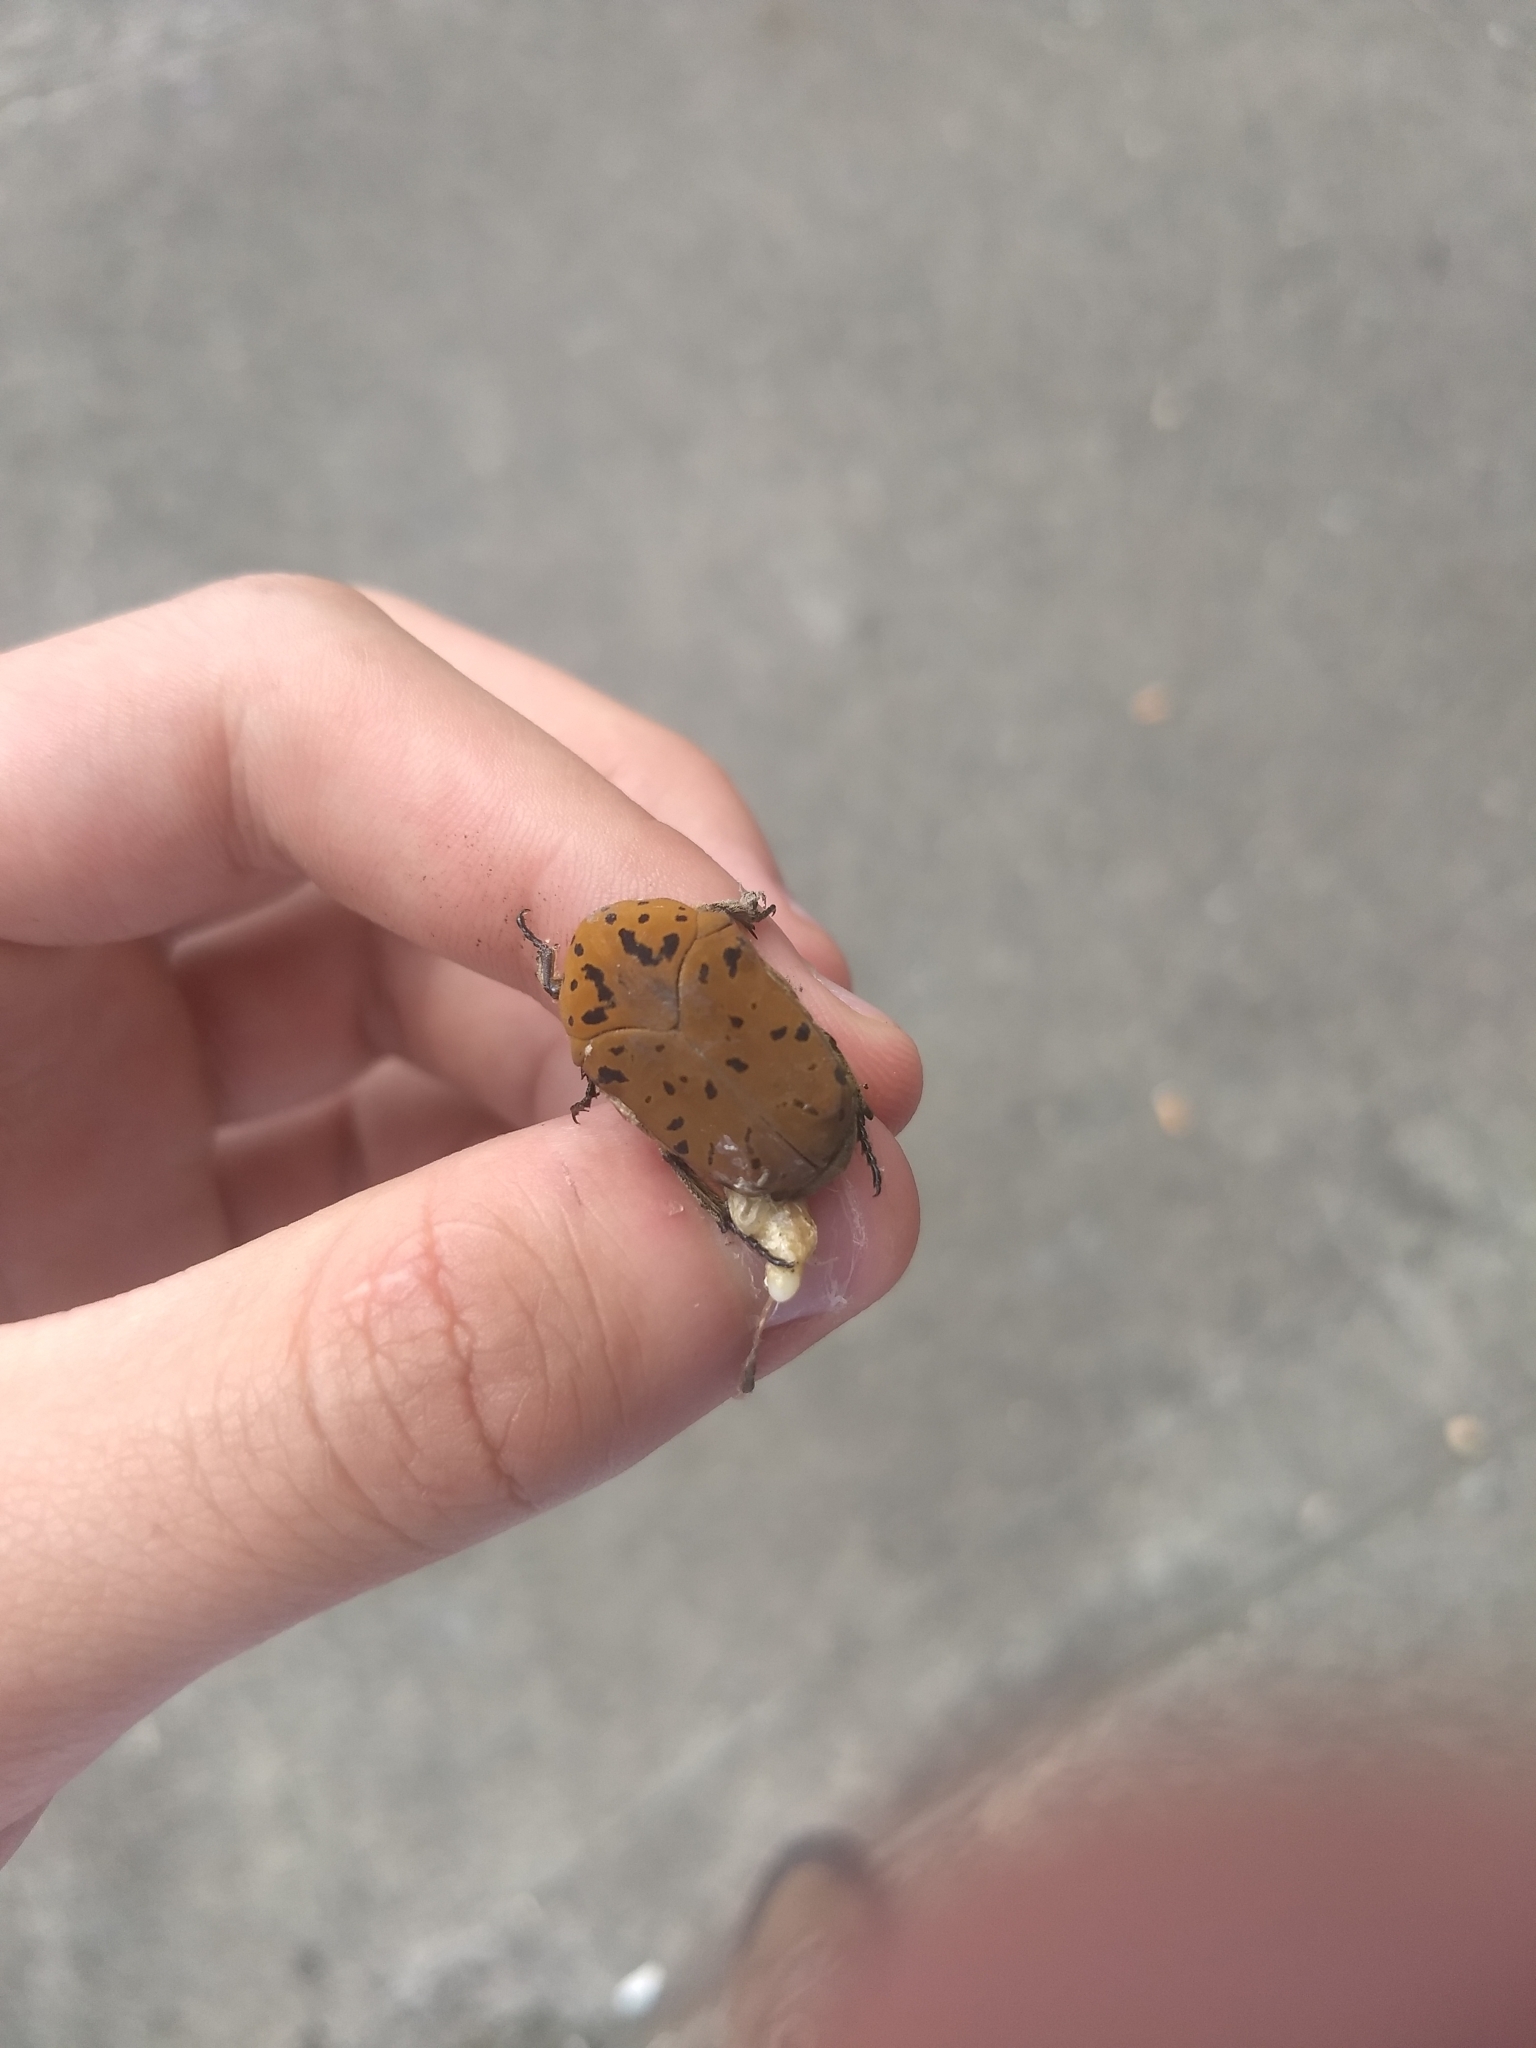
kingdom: Animalia
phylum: Arthropoda
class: Insecta
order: Coleoptera
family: Scarabaeidae
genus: Gymnetis
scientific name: Gymnetis pantherina
